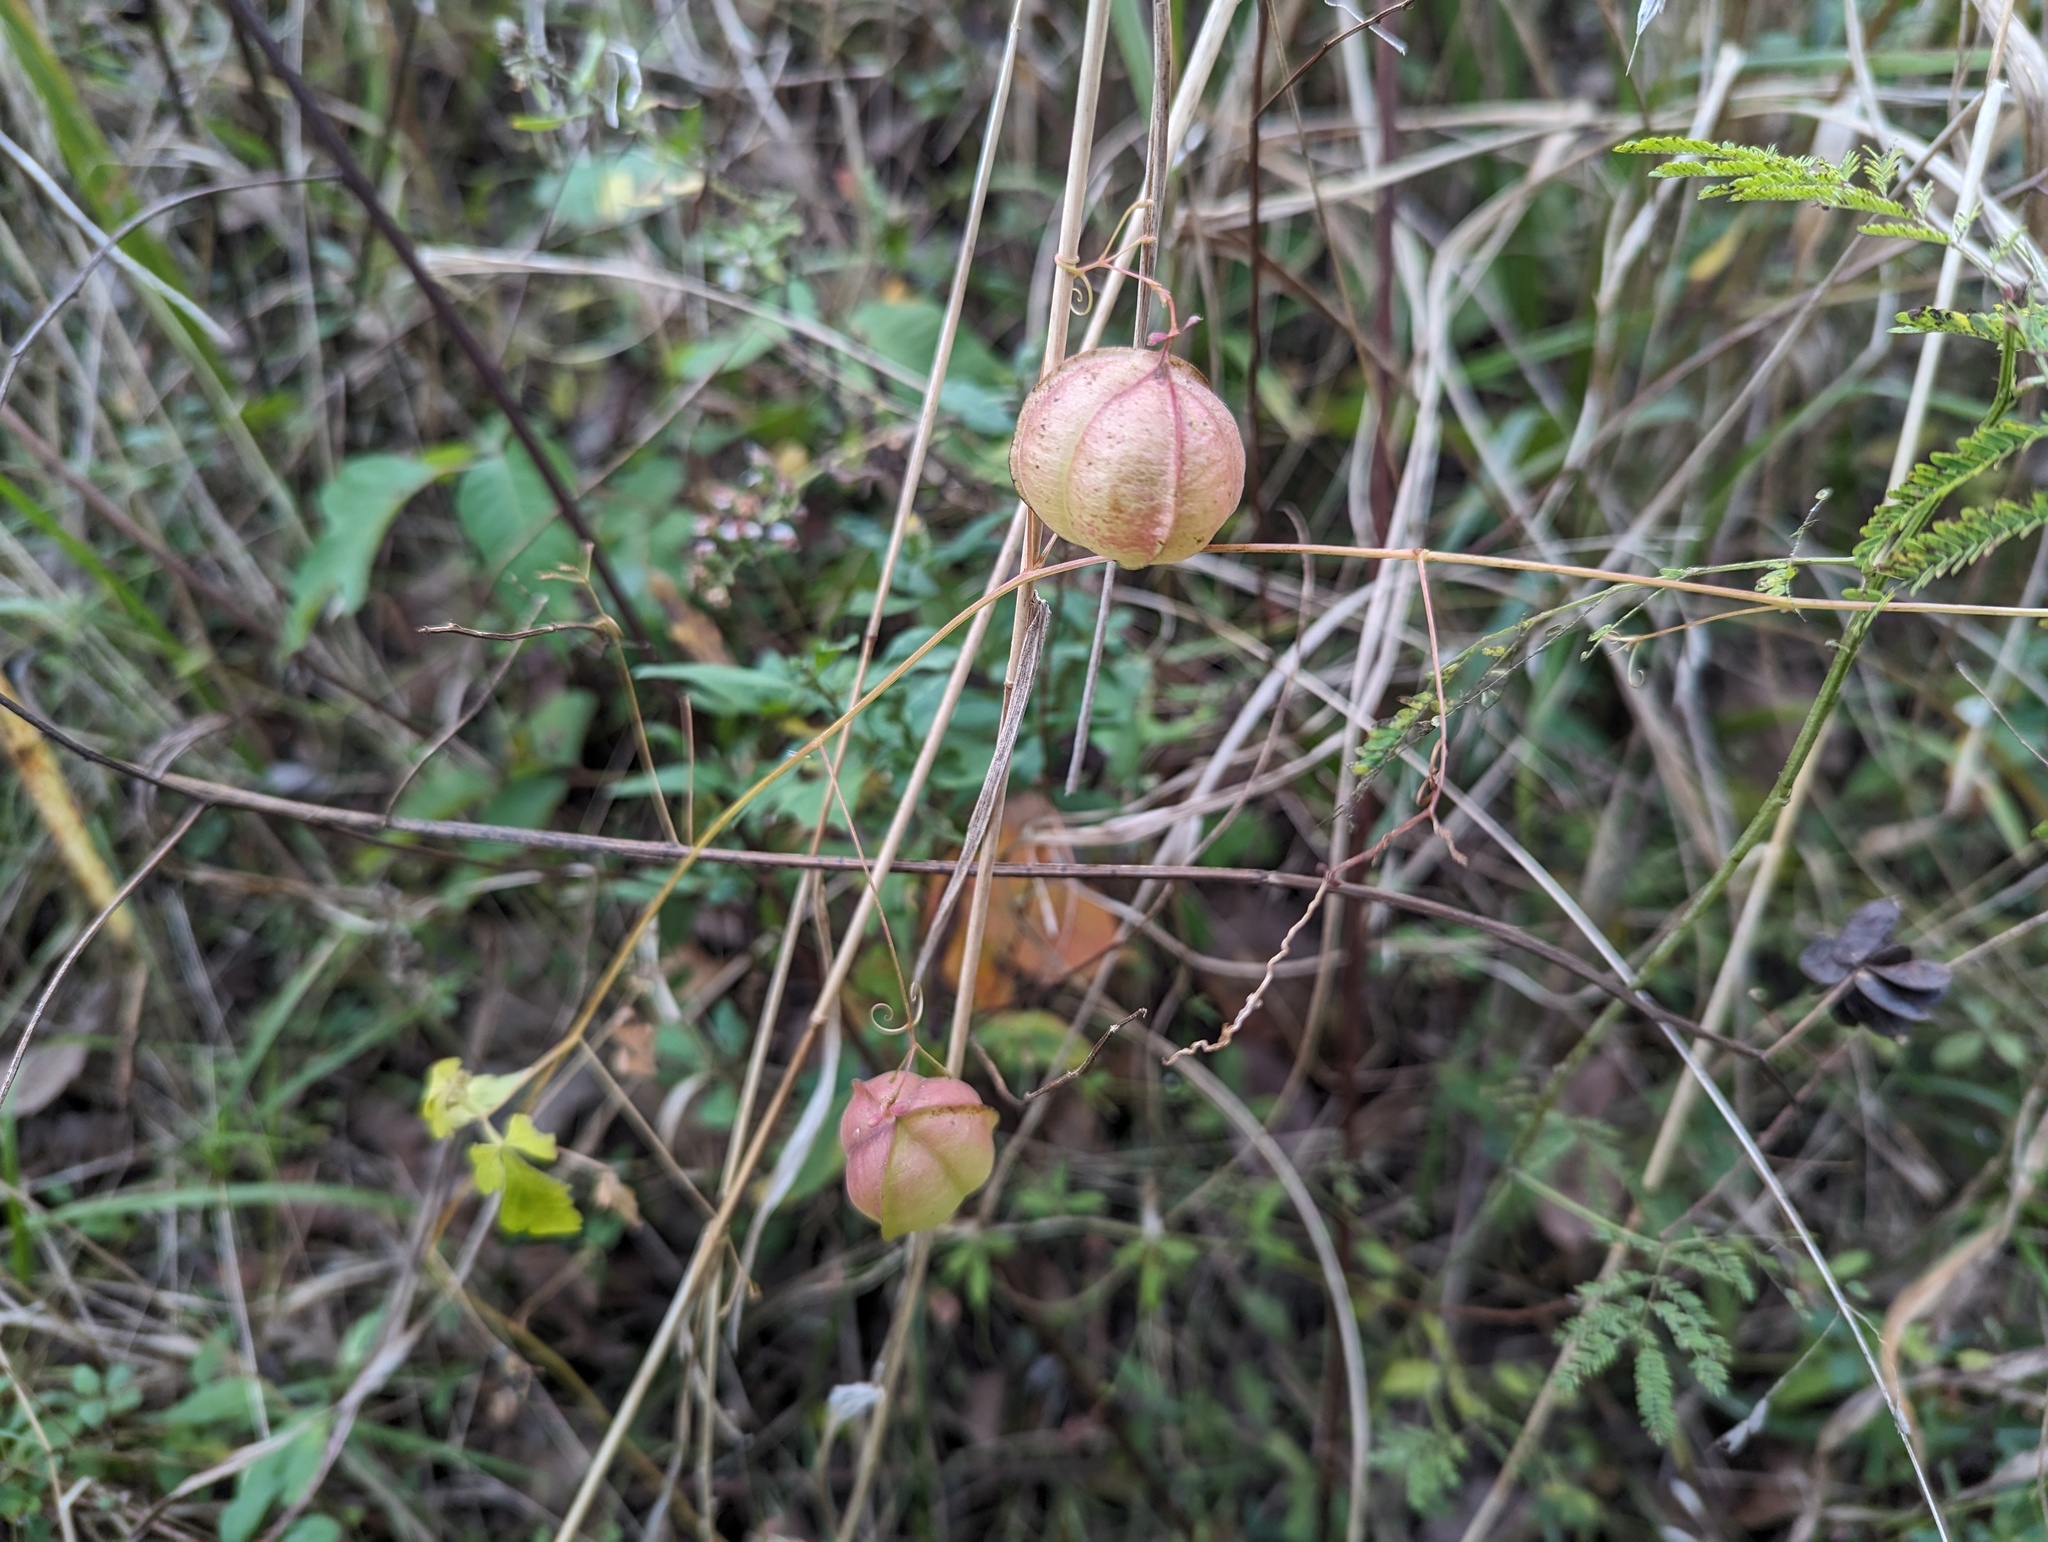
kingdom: Plantae
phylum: Tracheophyta
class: Magnoliopsida
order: Sapindales
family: Sapindaceae
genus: Cardiospermum
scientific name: Cardiospermum halicacabum
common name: Balloon vine
